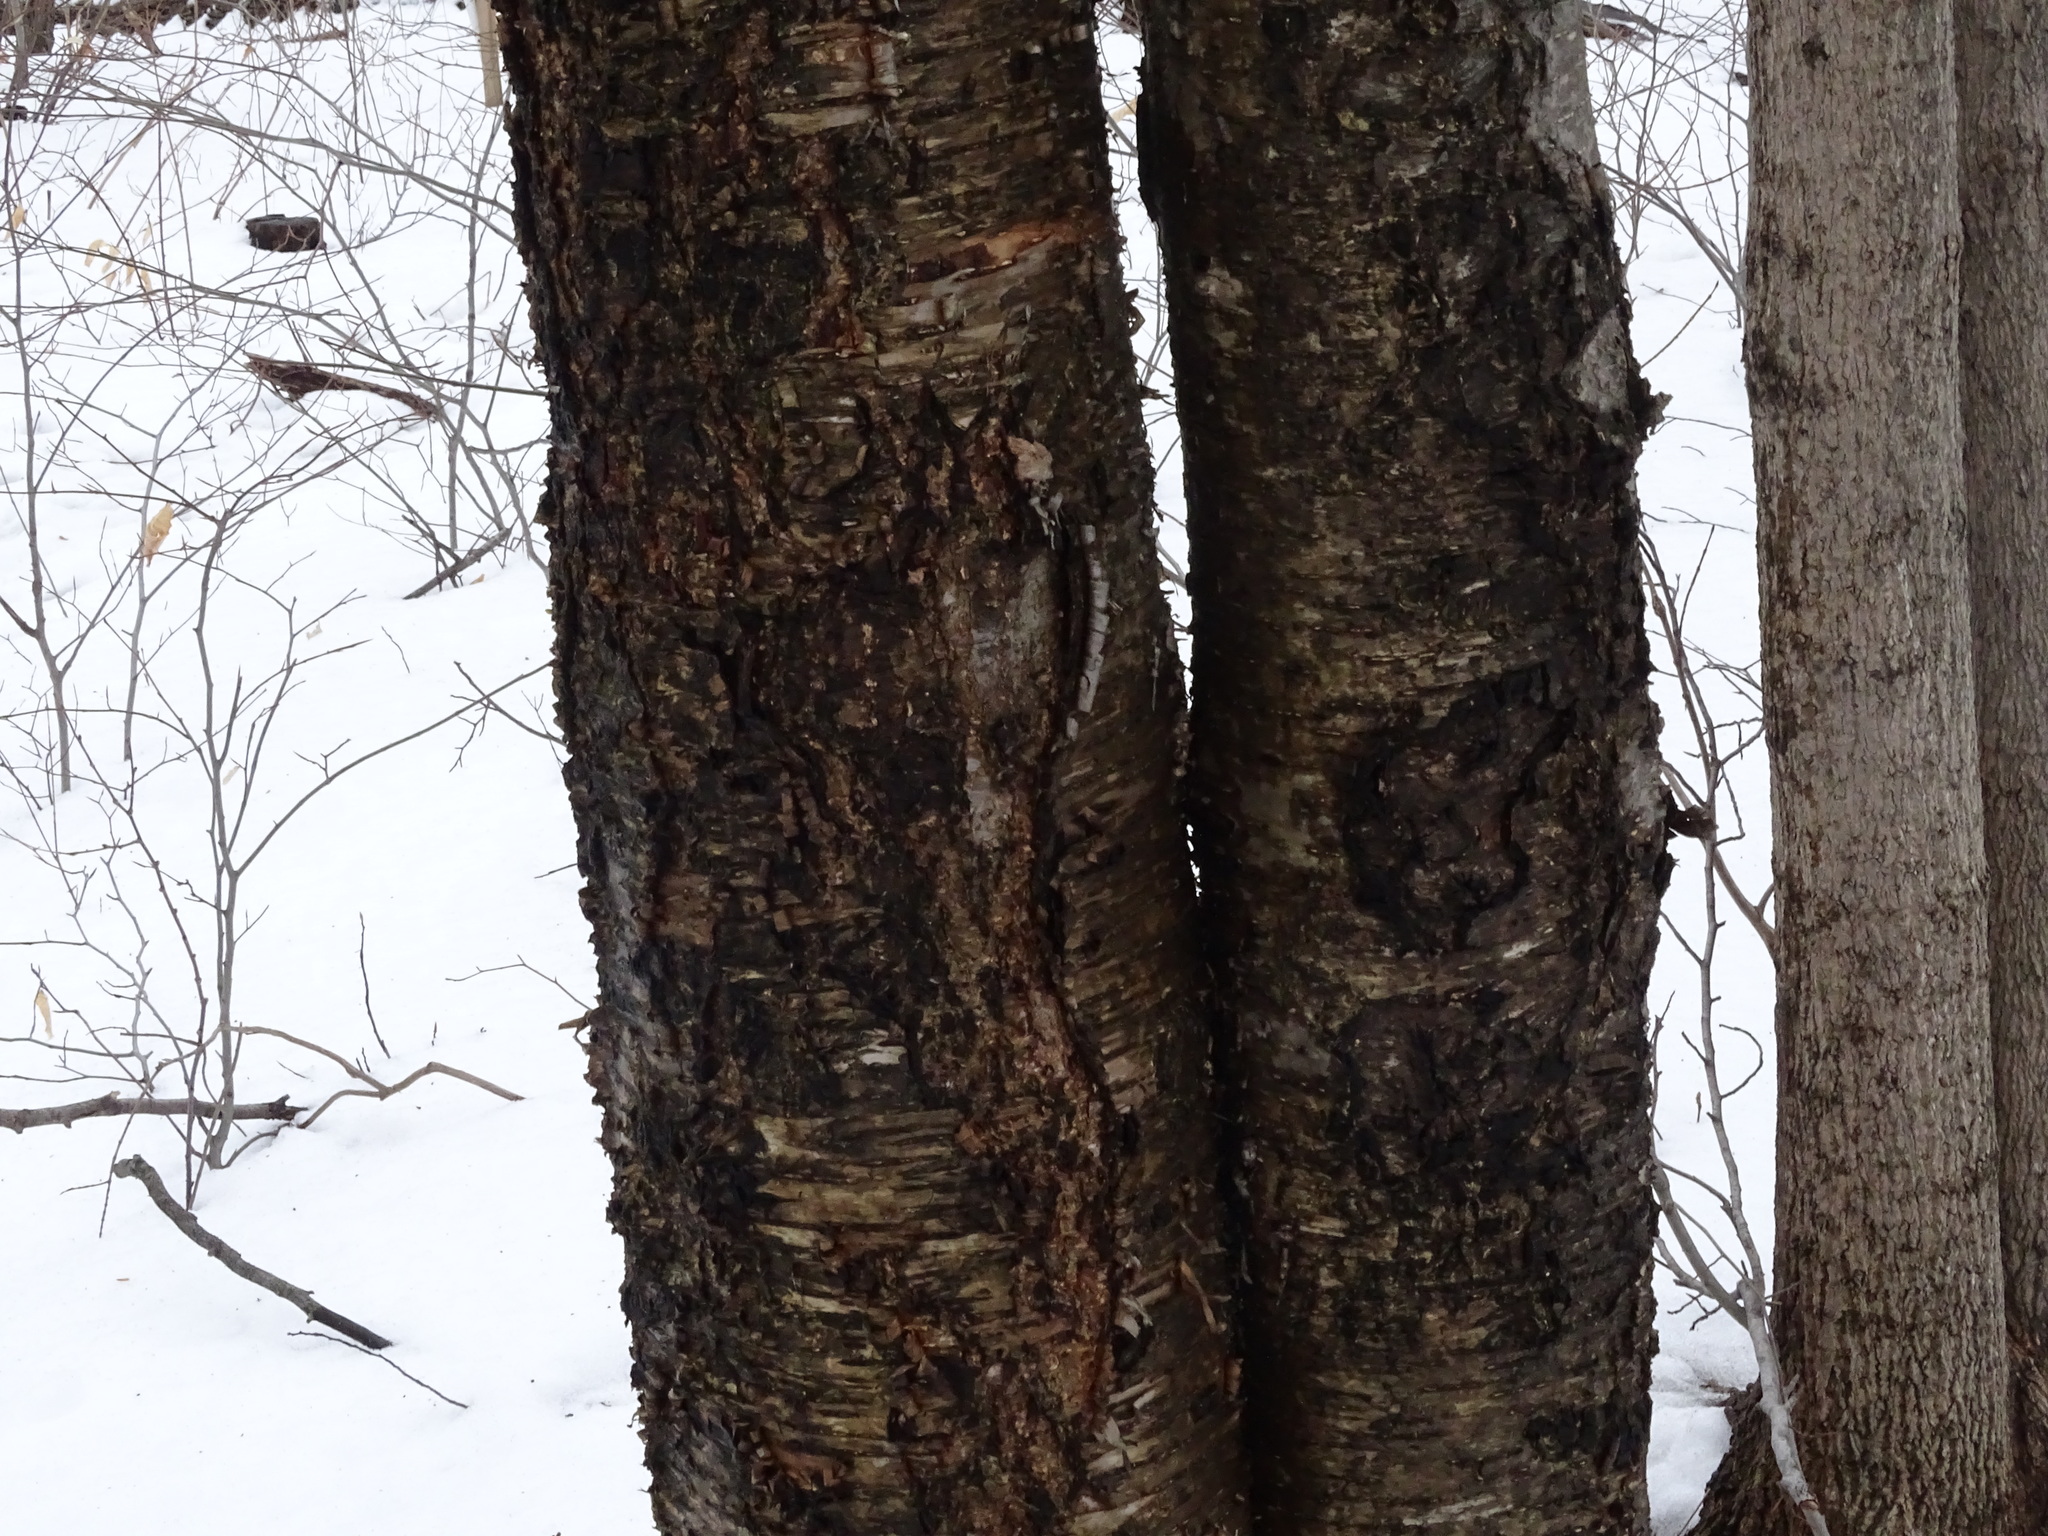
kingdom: Plantae
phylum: Tracheophyta
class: Magnoliopsida
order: Fagales
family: Betulaceae
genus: Betula
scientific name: Betula alleghaniensis
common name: Yellow birch
